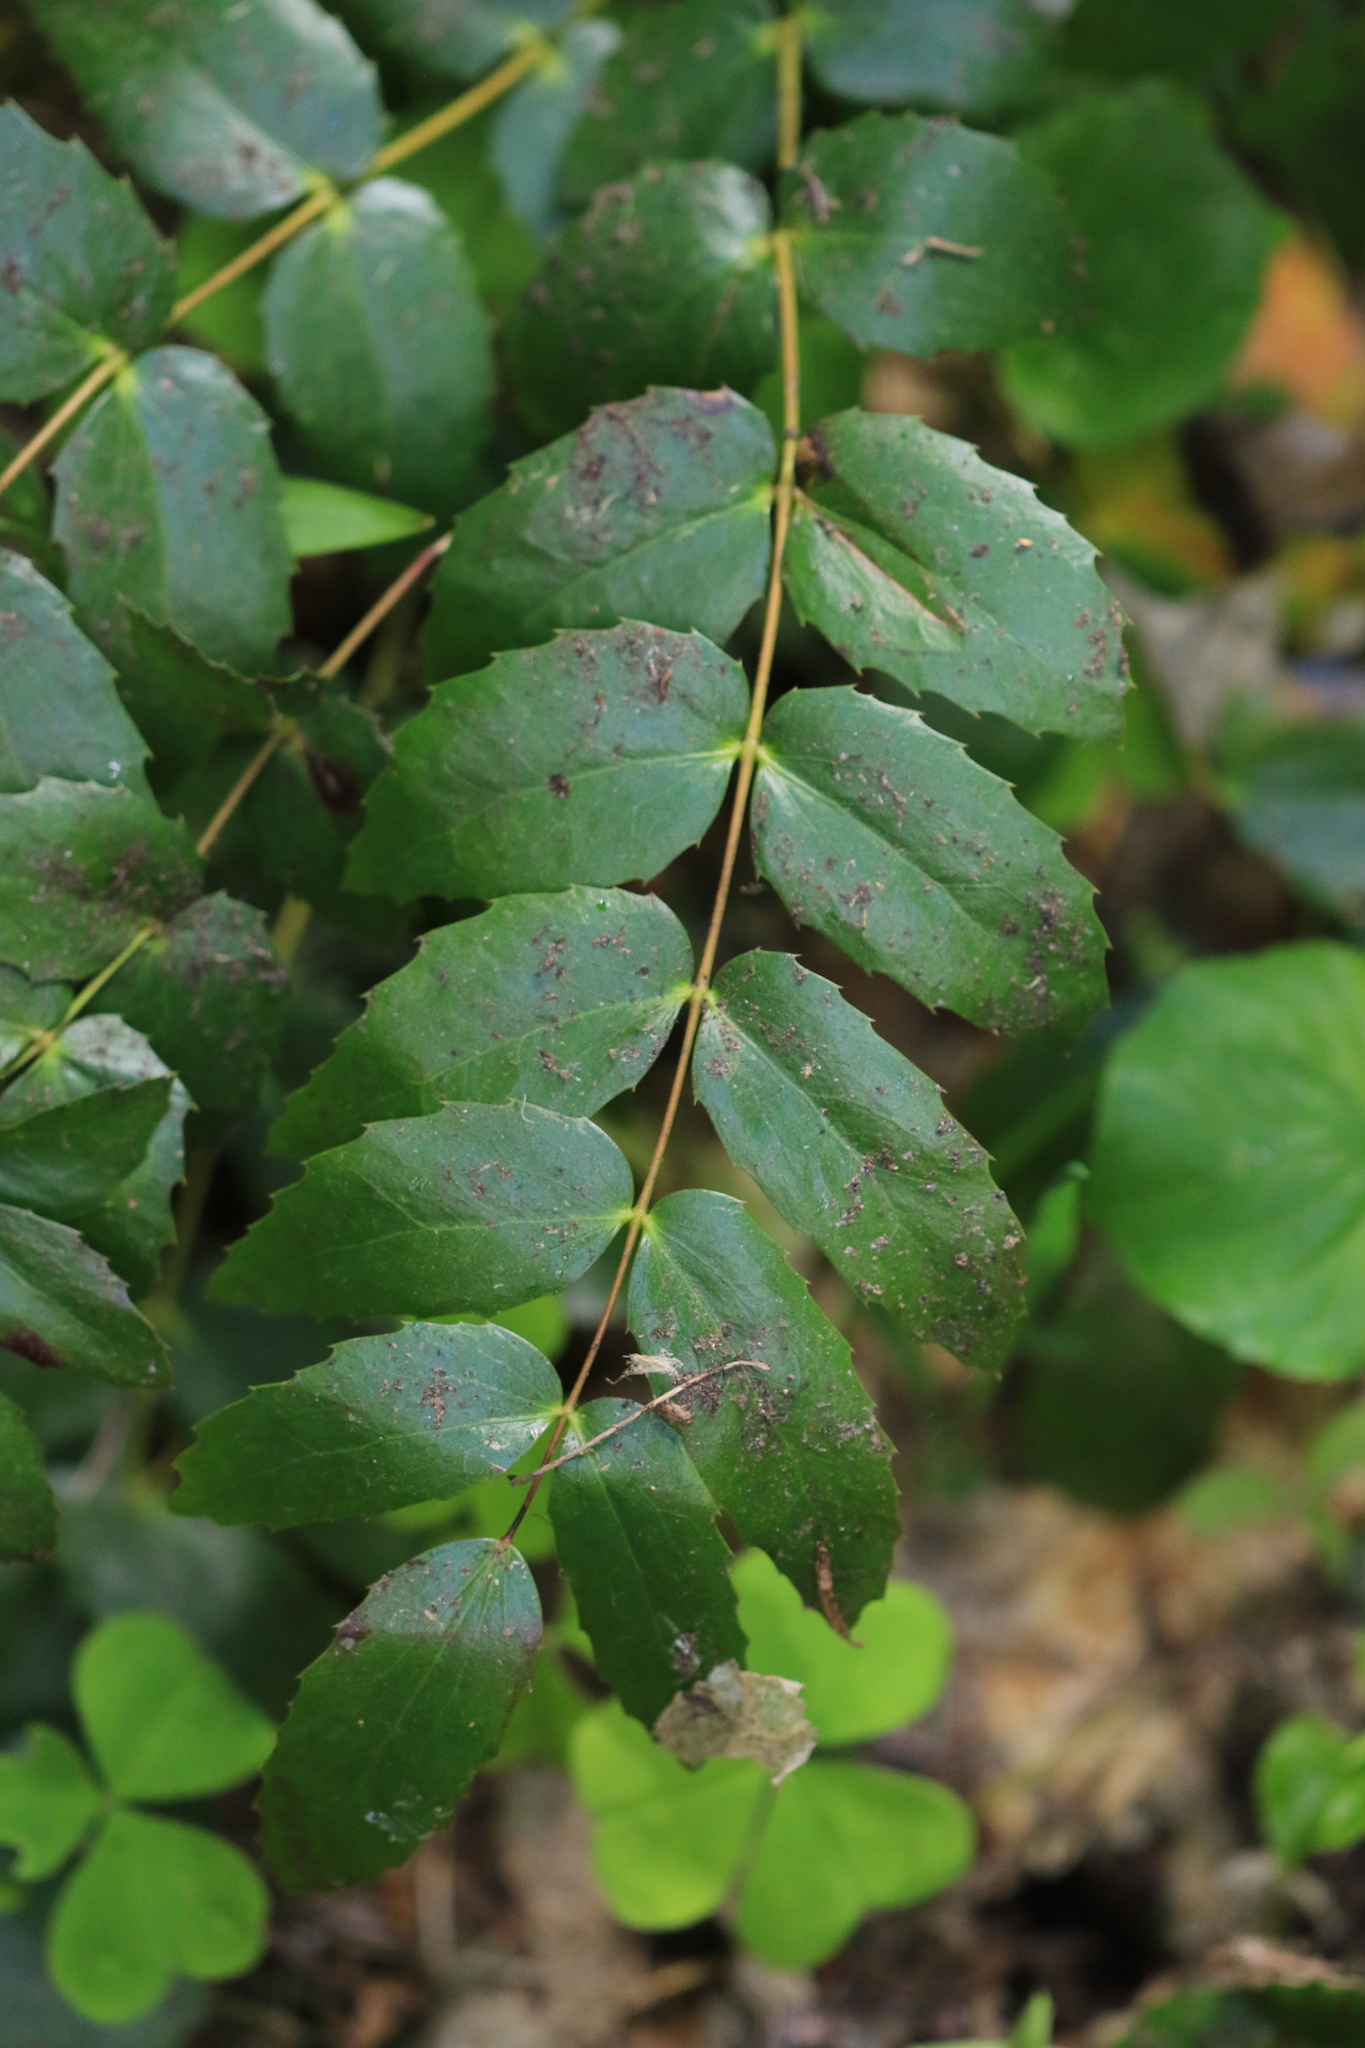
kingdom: Plantae
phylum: Tracheophyta
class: Magnoliopsida
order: Ranunculales
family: Berberidaceae
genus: Mahonia
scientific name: Mahonia nervosa
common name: Cascade oregon-grape
